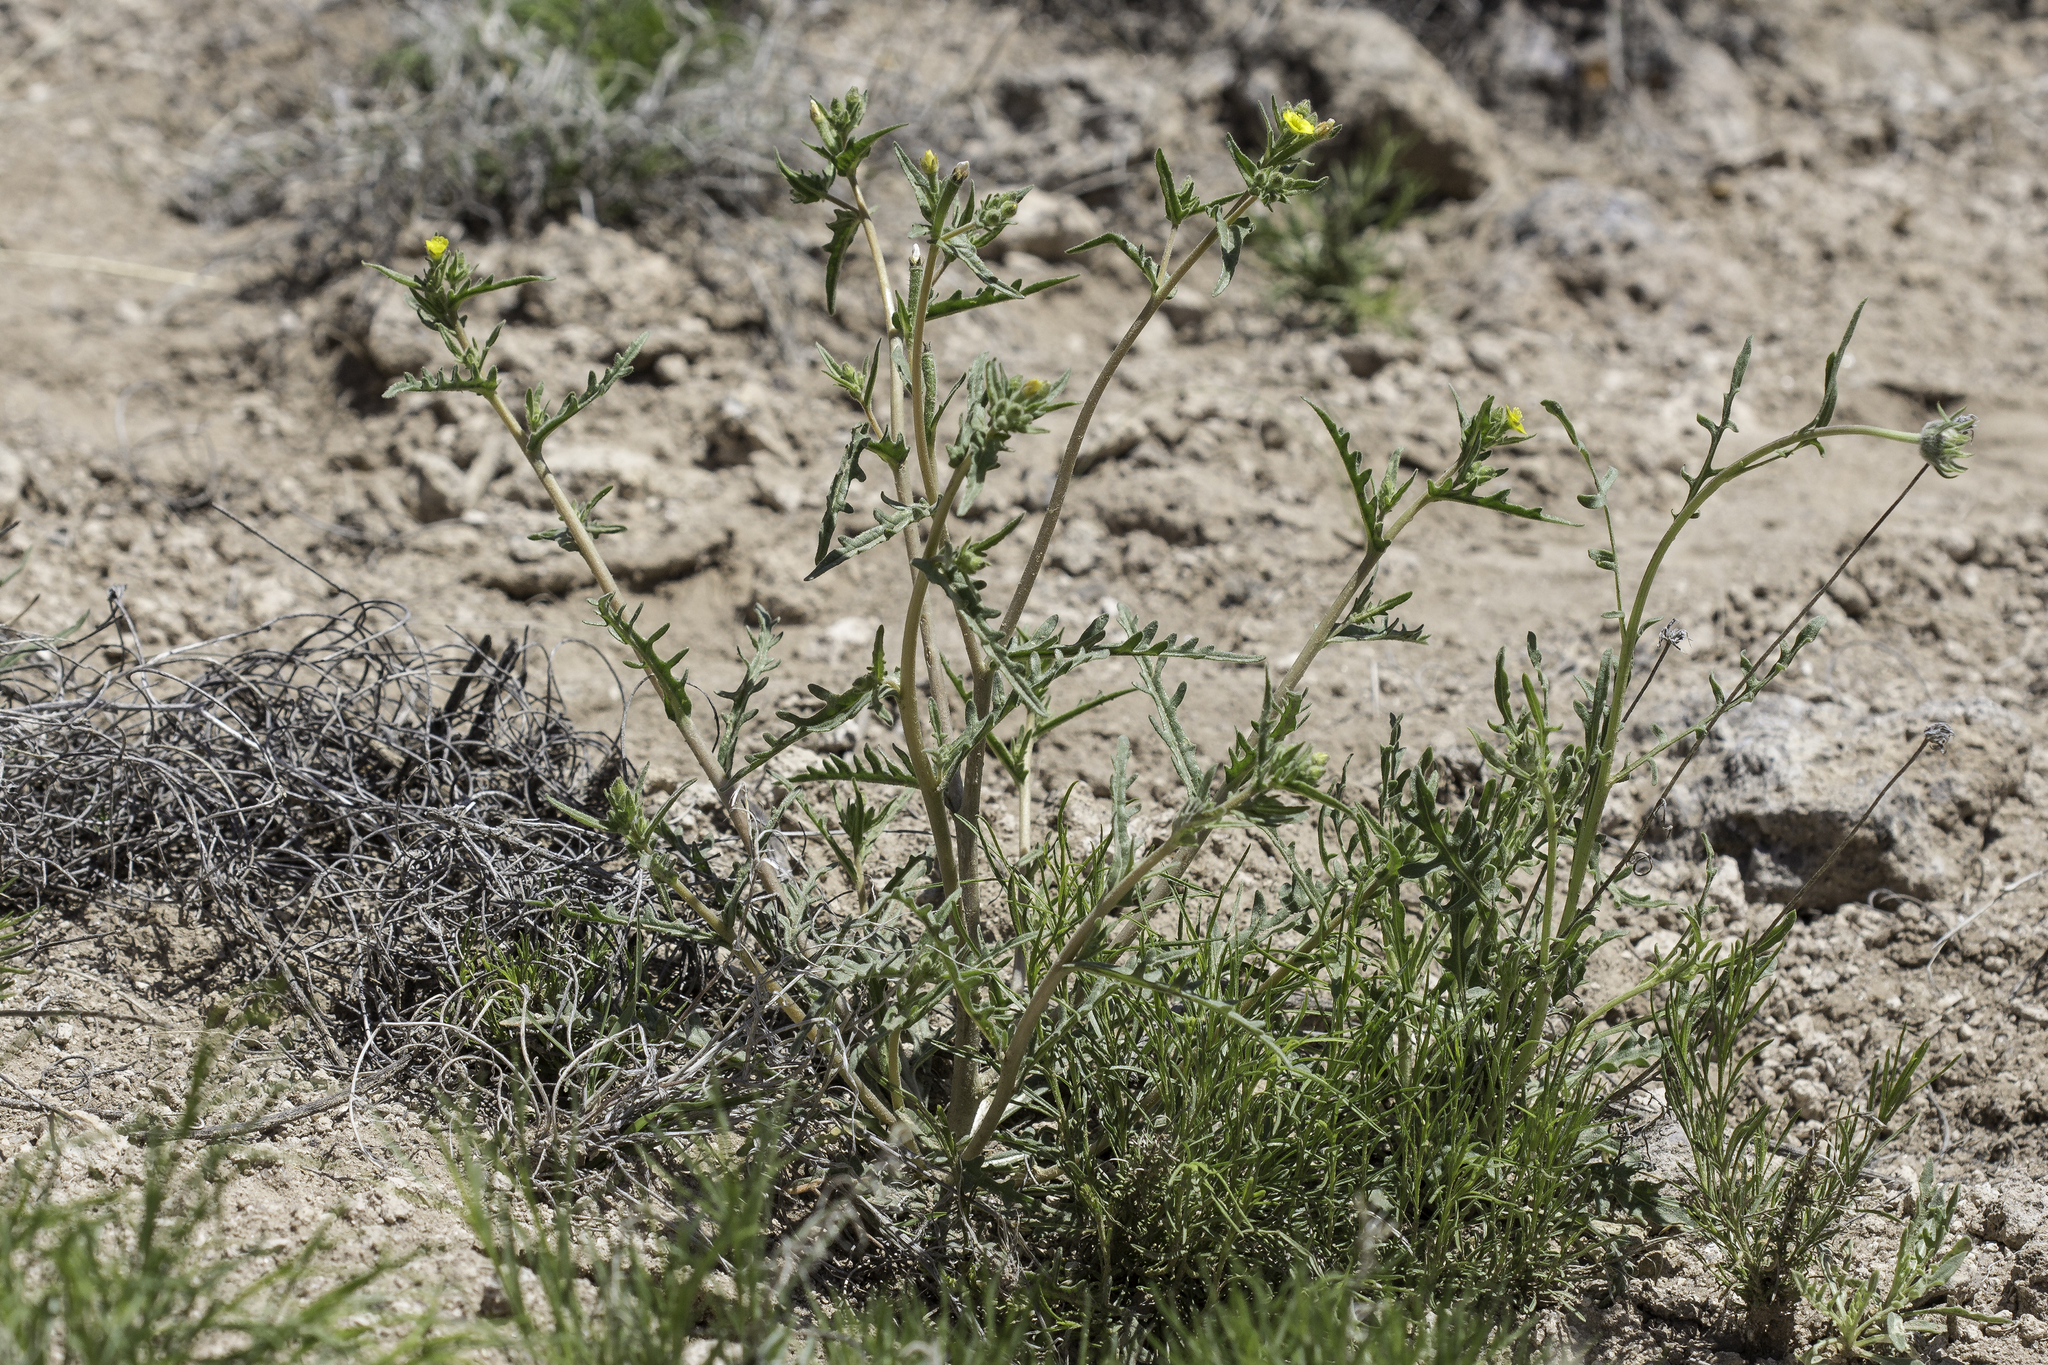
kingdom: Plantae
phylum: Tracheophyta
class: Magnoliopsida
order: Cornales
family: Loasaceae
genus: Mentzelia
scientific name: Mentzelia albicaulis
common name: White-stem blazingstar
